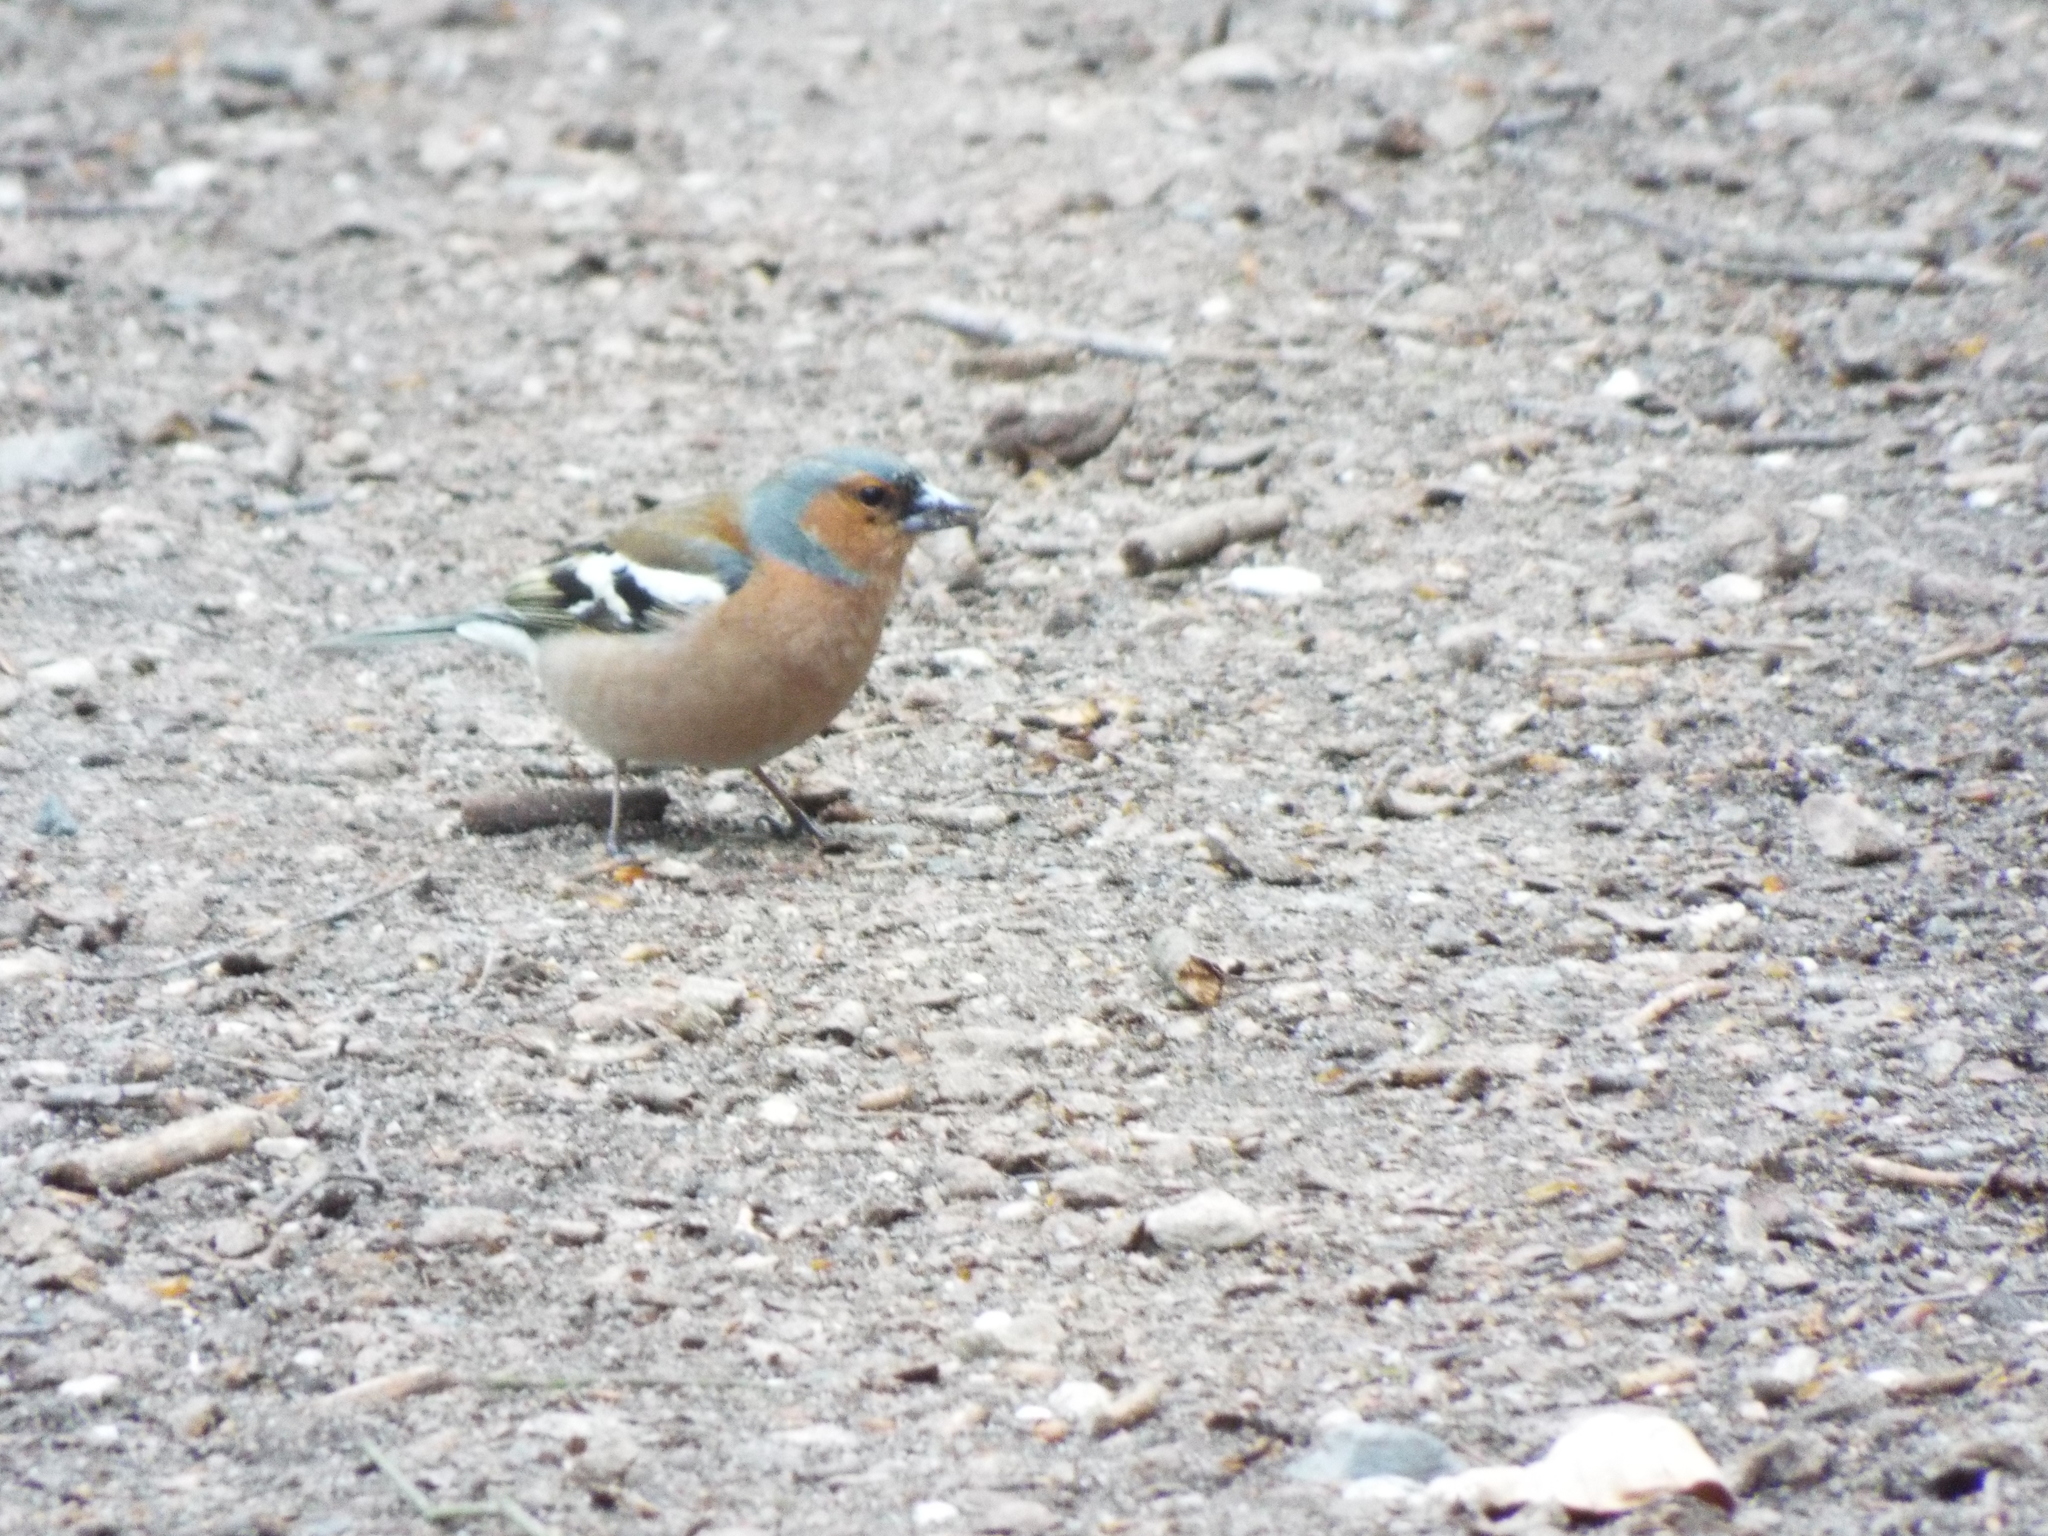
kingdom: Animalia
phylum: Chordata
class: Aves
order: Passeriformes
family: Fringillidae
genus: Fringilla
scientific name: Fringilla coelebs
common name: Common chaffinch
